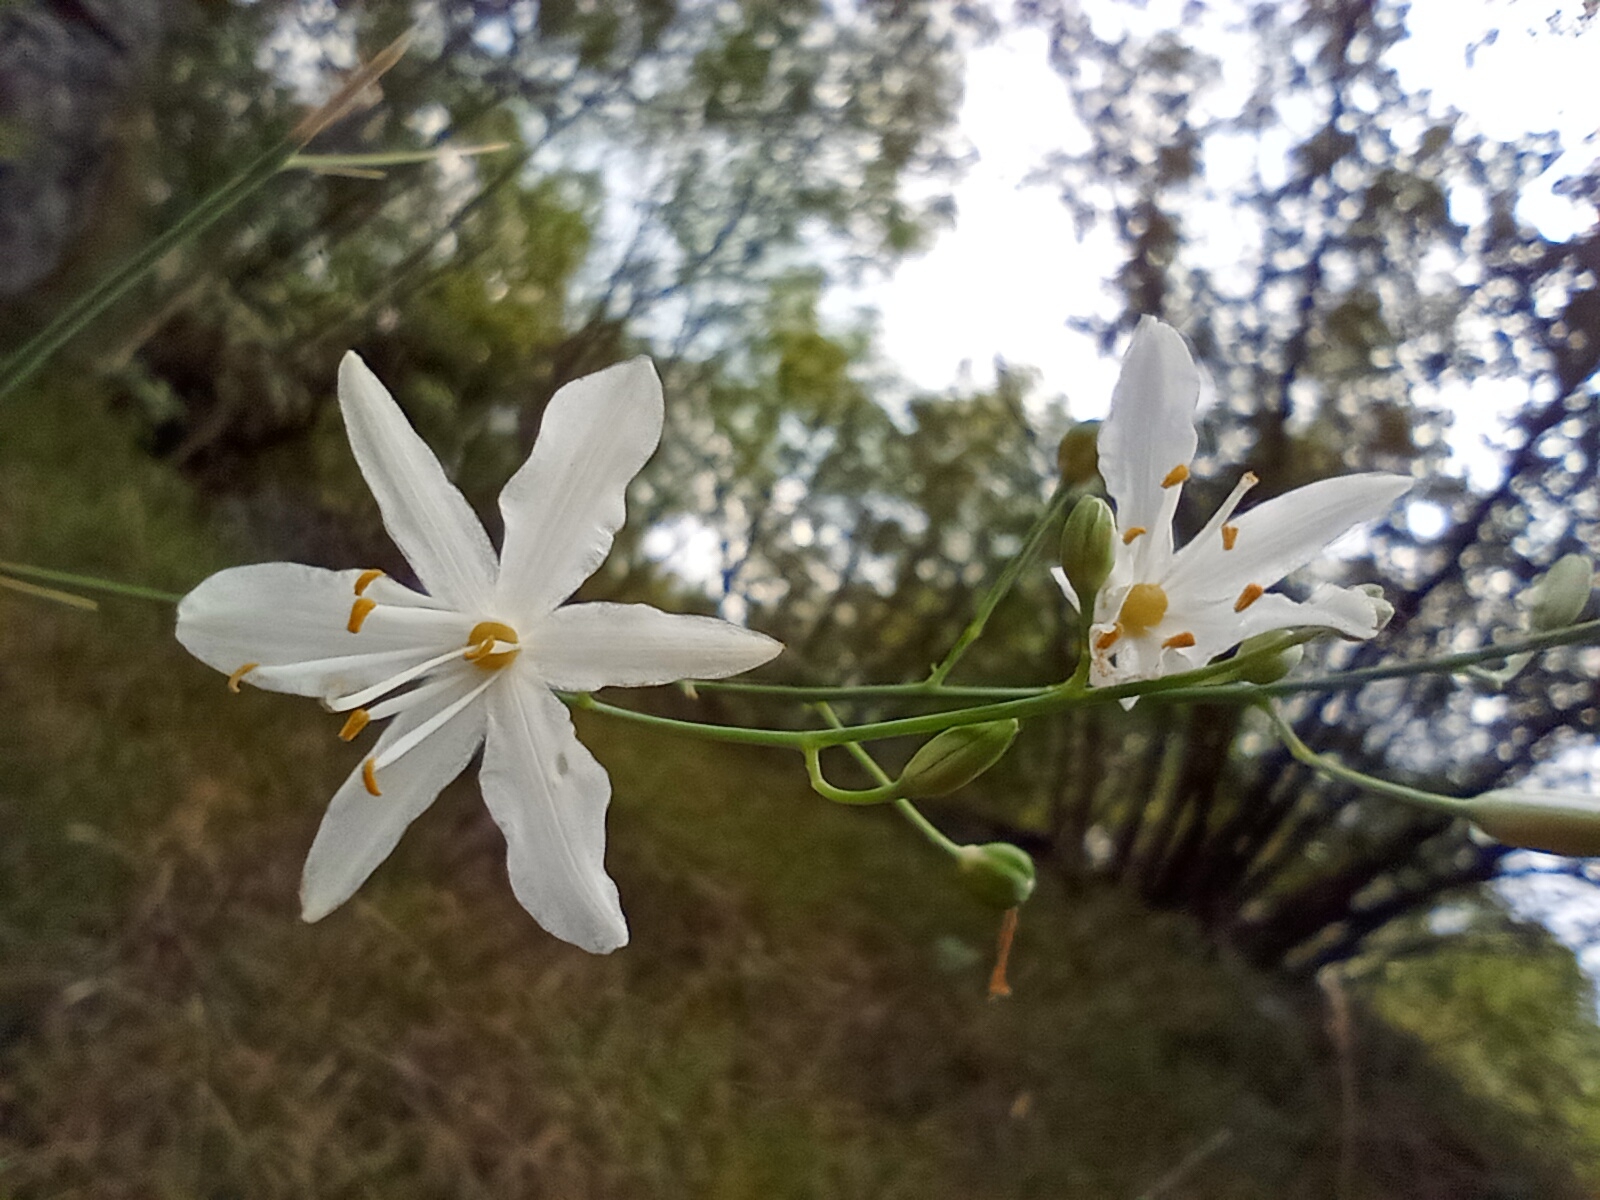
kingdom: Plantae
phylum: Tracheophyta
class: Liliopsida
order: Asparagales
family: Asparagaceae
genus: Anthericum
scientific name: Anthericum ramosum
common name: Branched st. bernard's-lily
